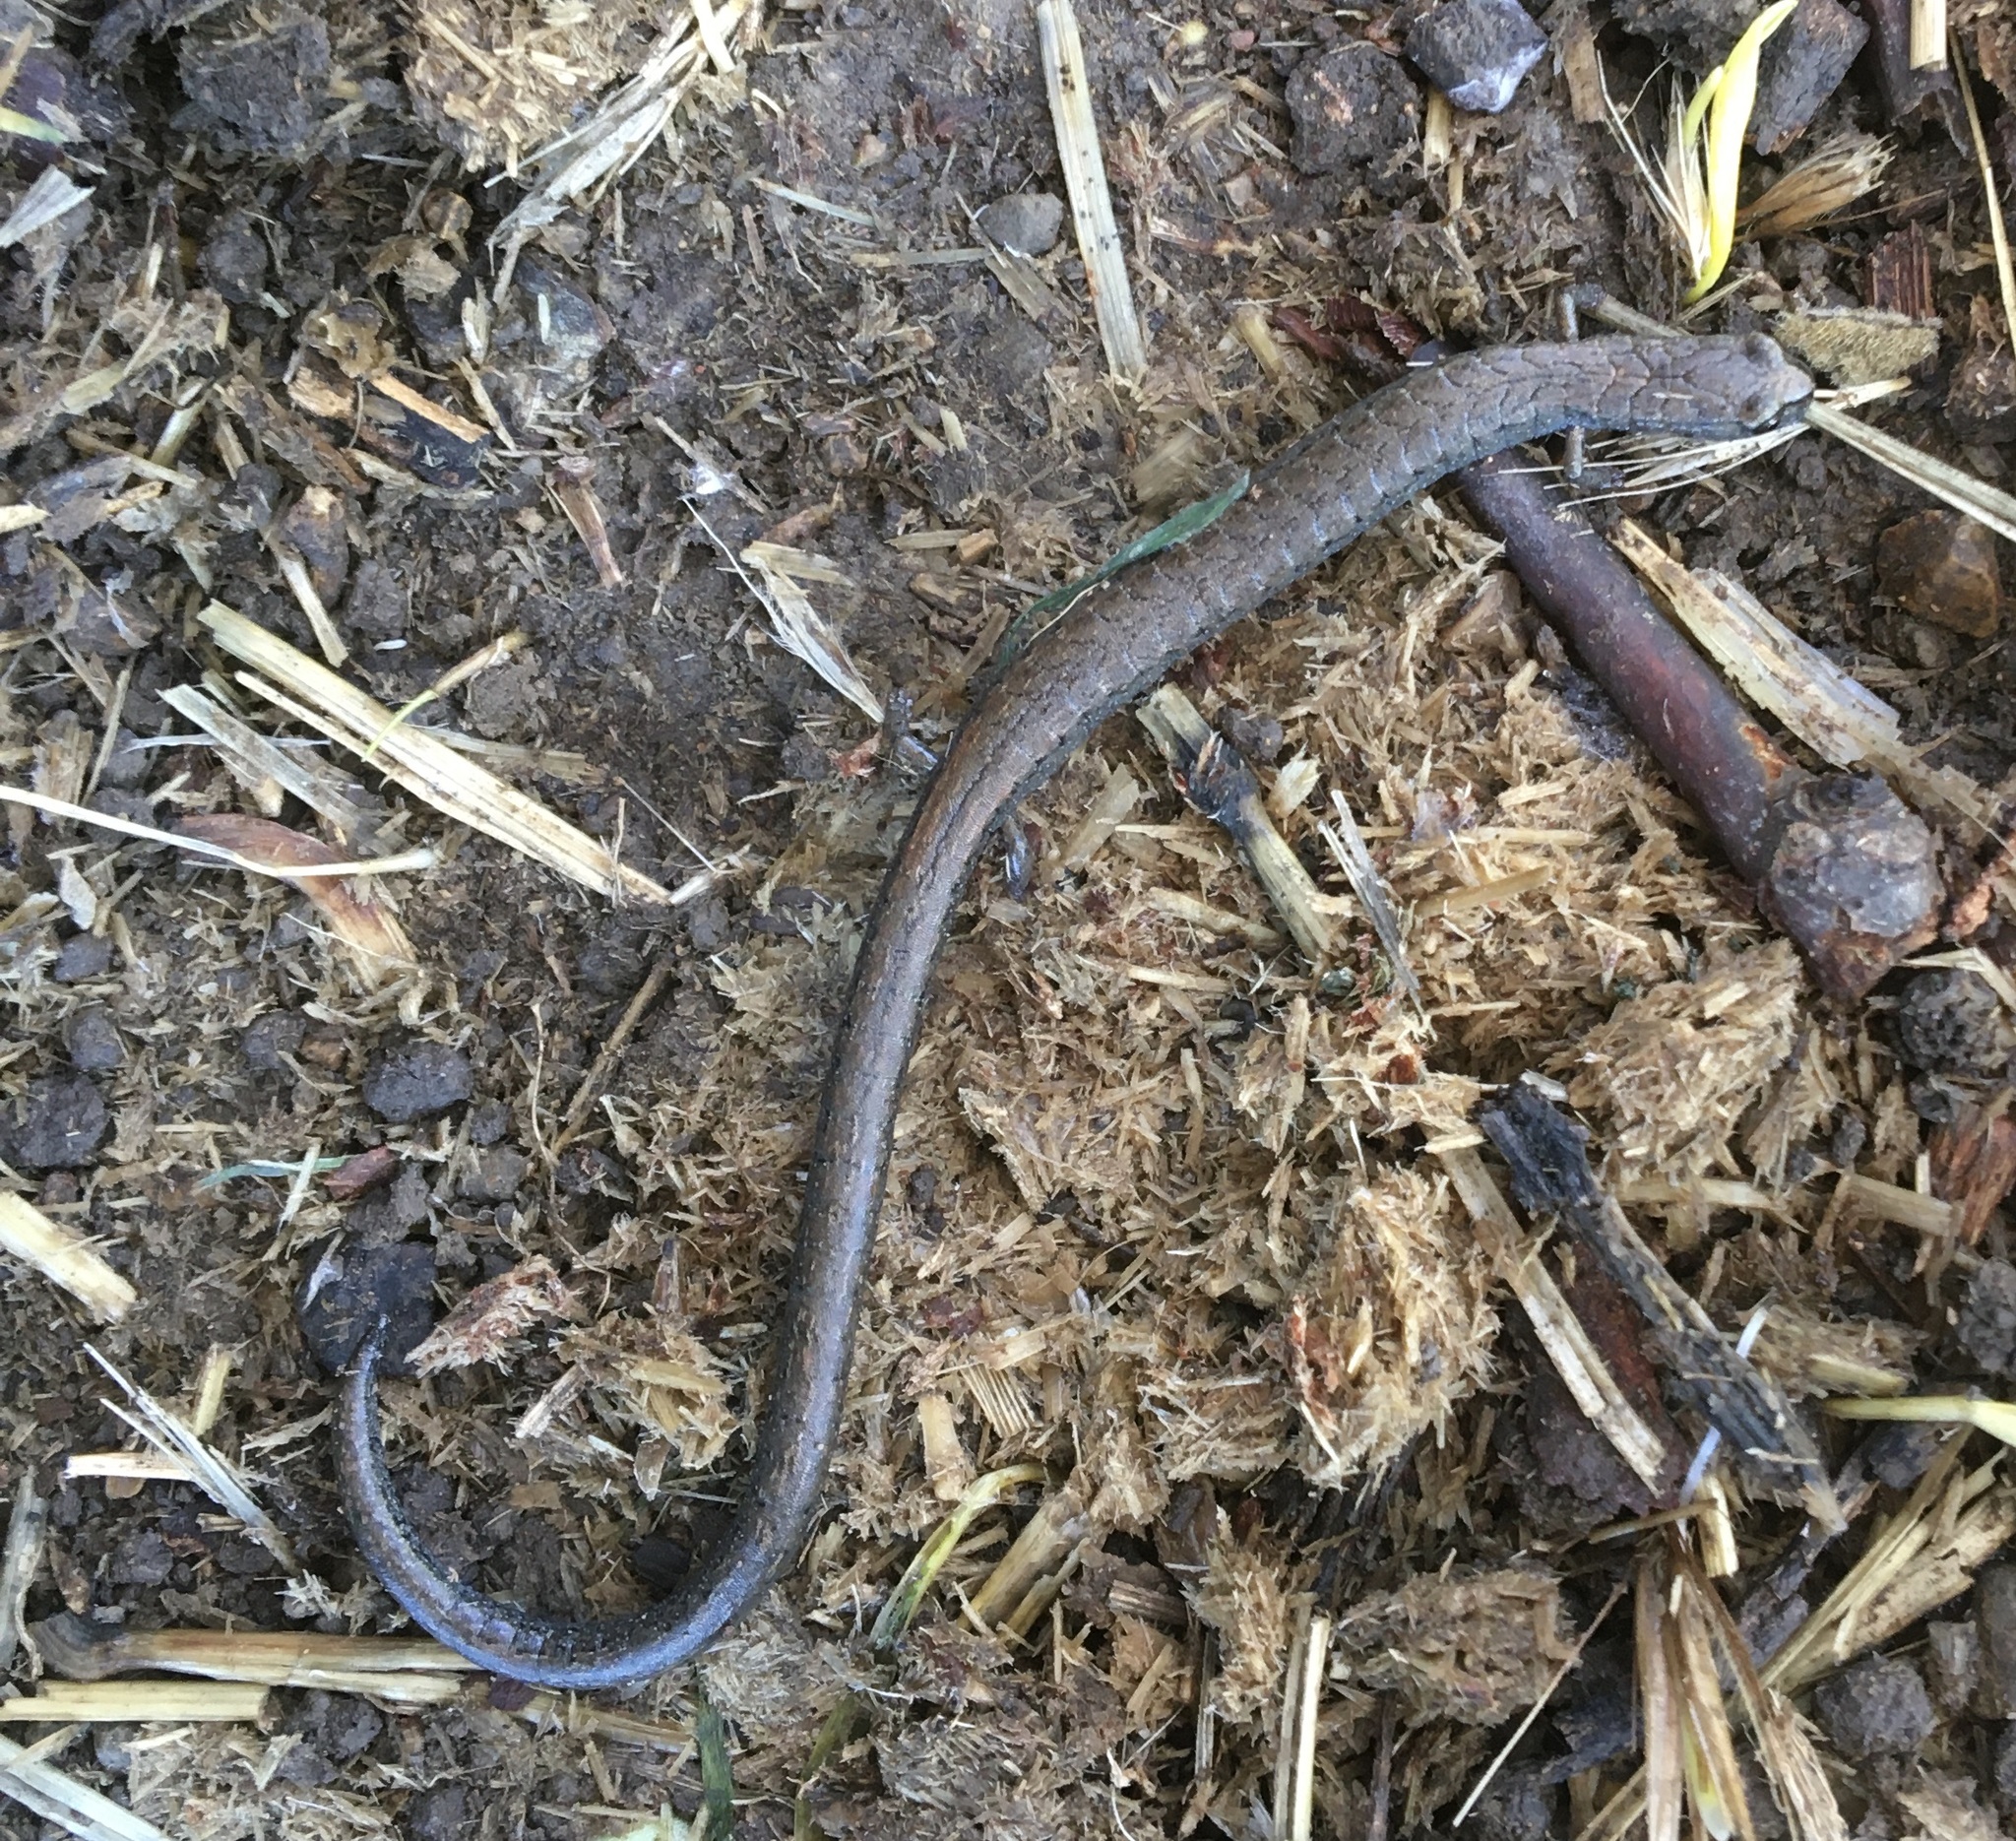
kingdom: Animalia
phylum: Chordata
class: Amphibia
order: Caudata
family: Plethodontidae
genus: Batrachoseps
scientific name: Batrachoseps nigriventris
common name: Black-bellied slender salamander
